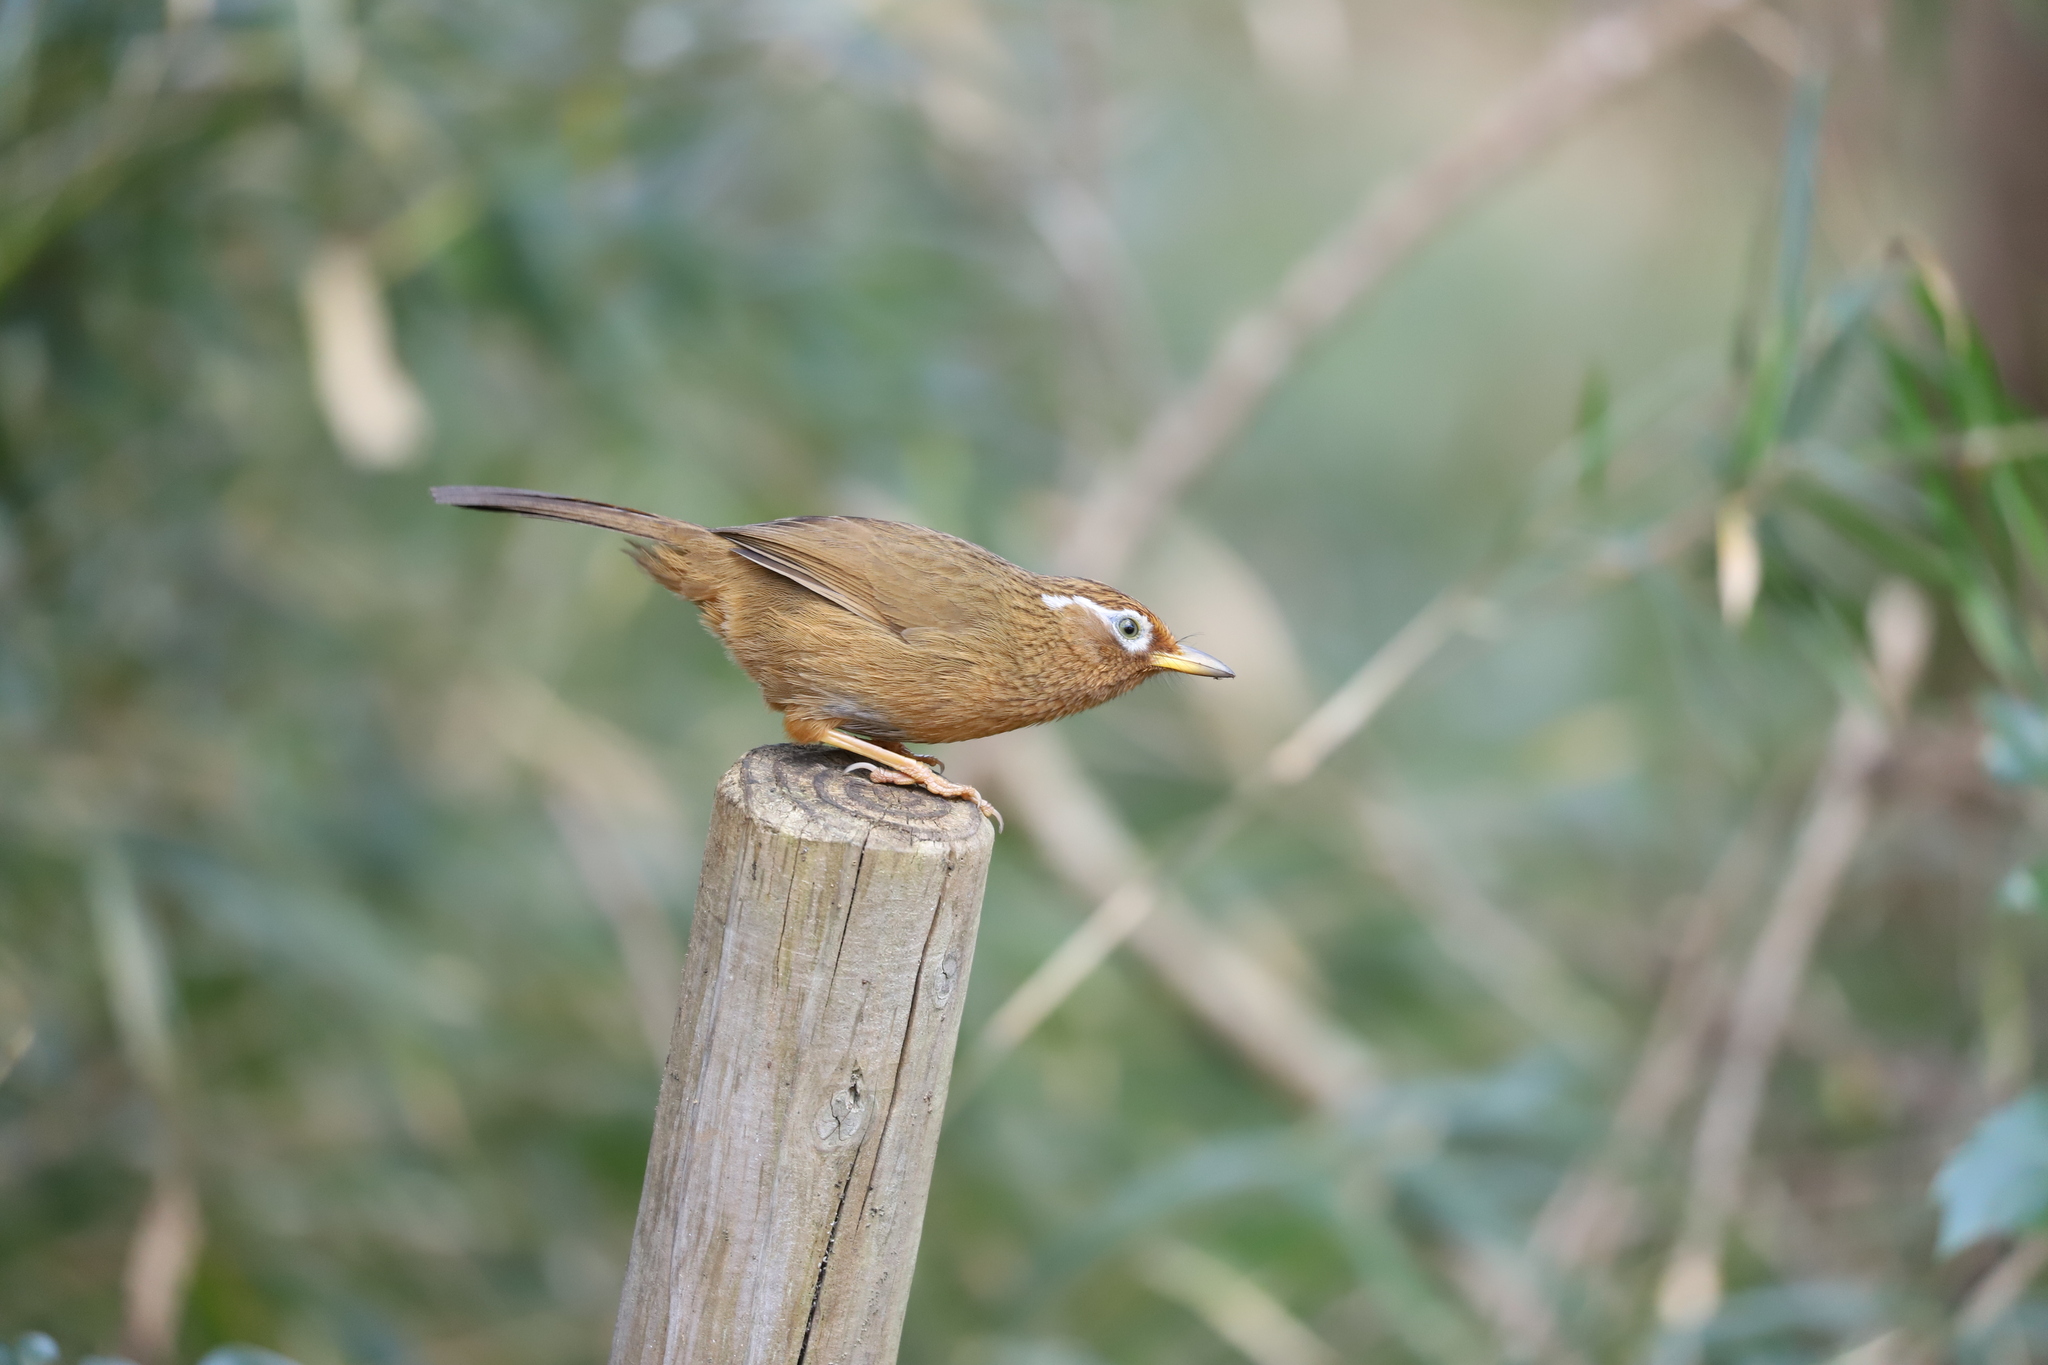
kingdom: Animalia
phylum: Chordata
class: Aves
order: Passeriformes
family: Leiothrichidae
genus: Garrulax
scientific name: Garrulax canorus
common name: Chinese hwamei
